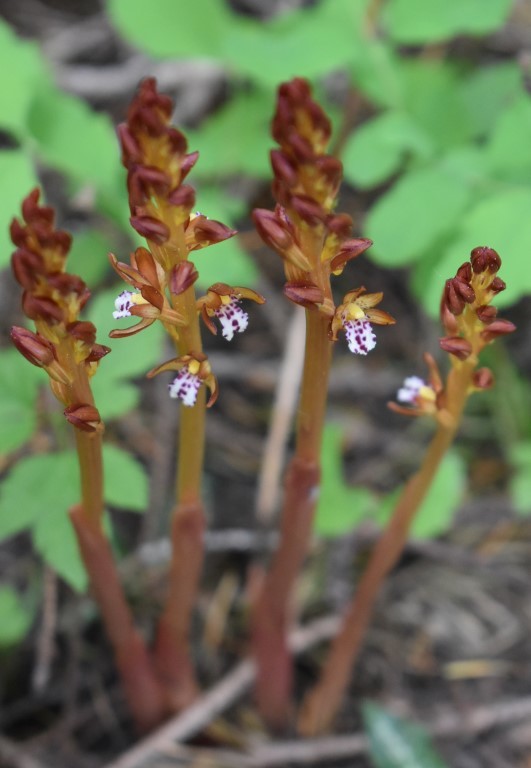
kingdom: Plantae
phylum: Tracheophyta
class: Liliopsida
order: Asparagales
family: Orchidaceae
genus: Corallorhiza
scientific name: Corallorhiza maculata
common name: Spotted coralroot
